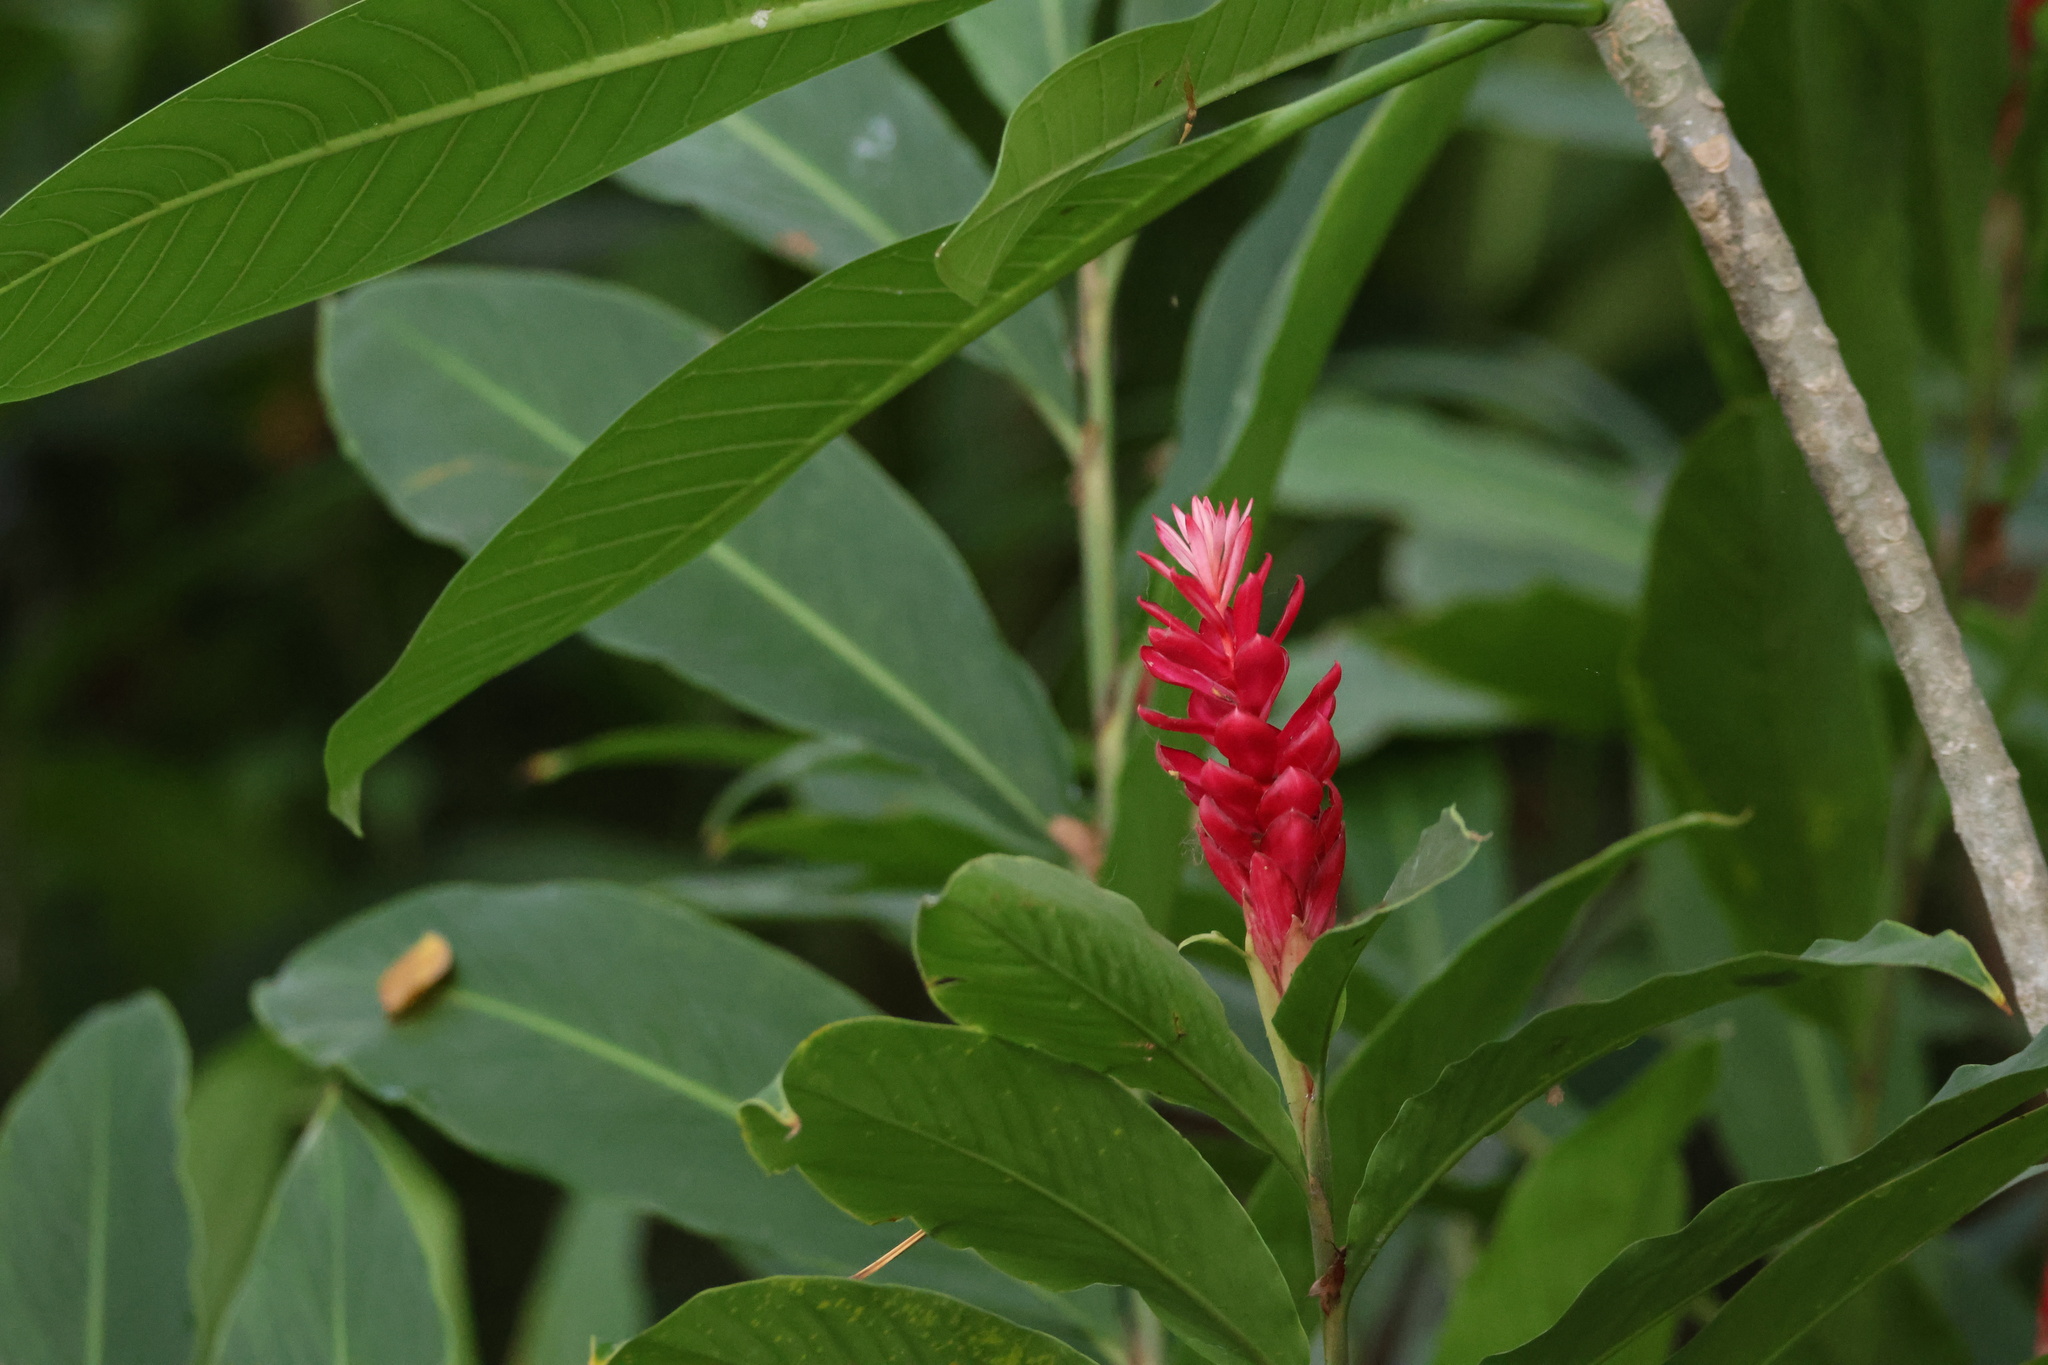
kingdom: Plantae
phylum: Tracheophyta
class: Liliopsida
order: Zingiberales
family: Zingiberaceae
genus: Alpinia
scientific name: Alpinia purpurata
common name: Red ginger
